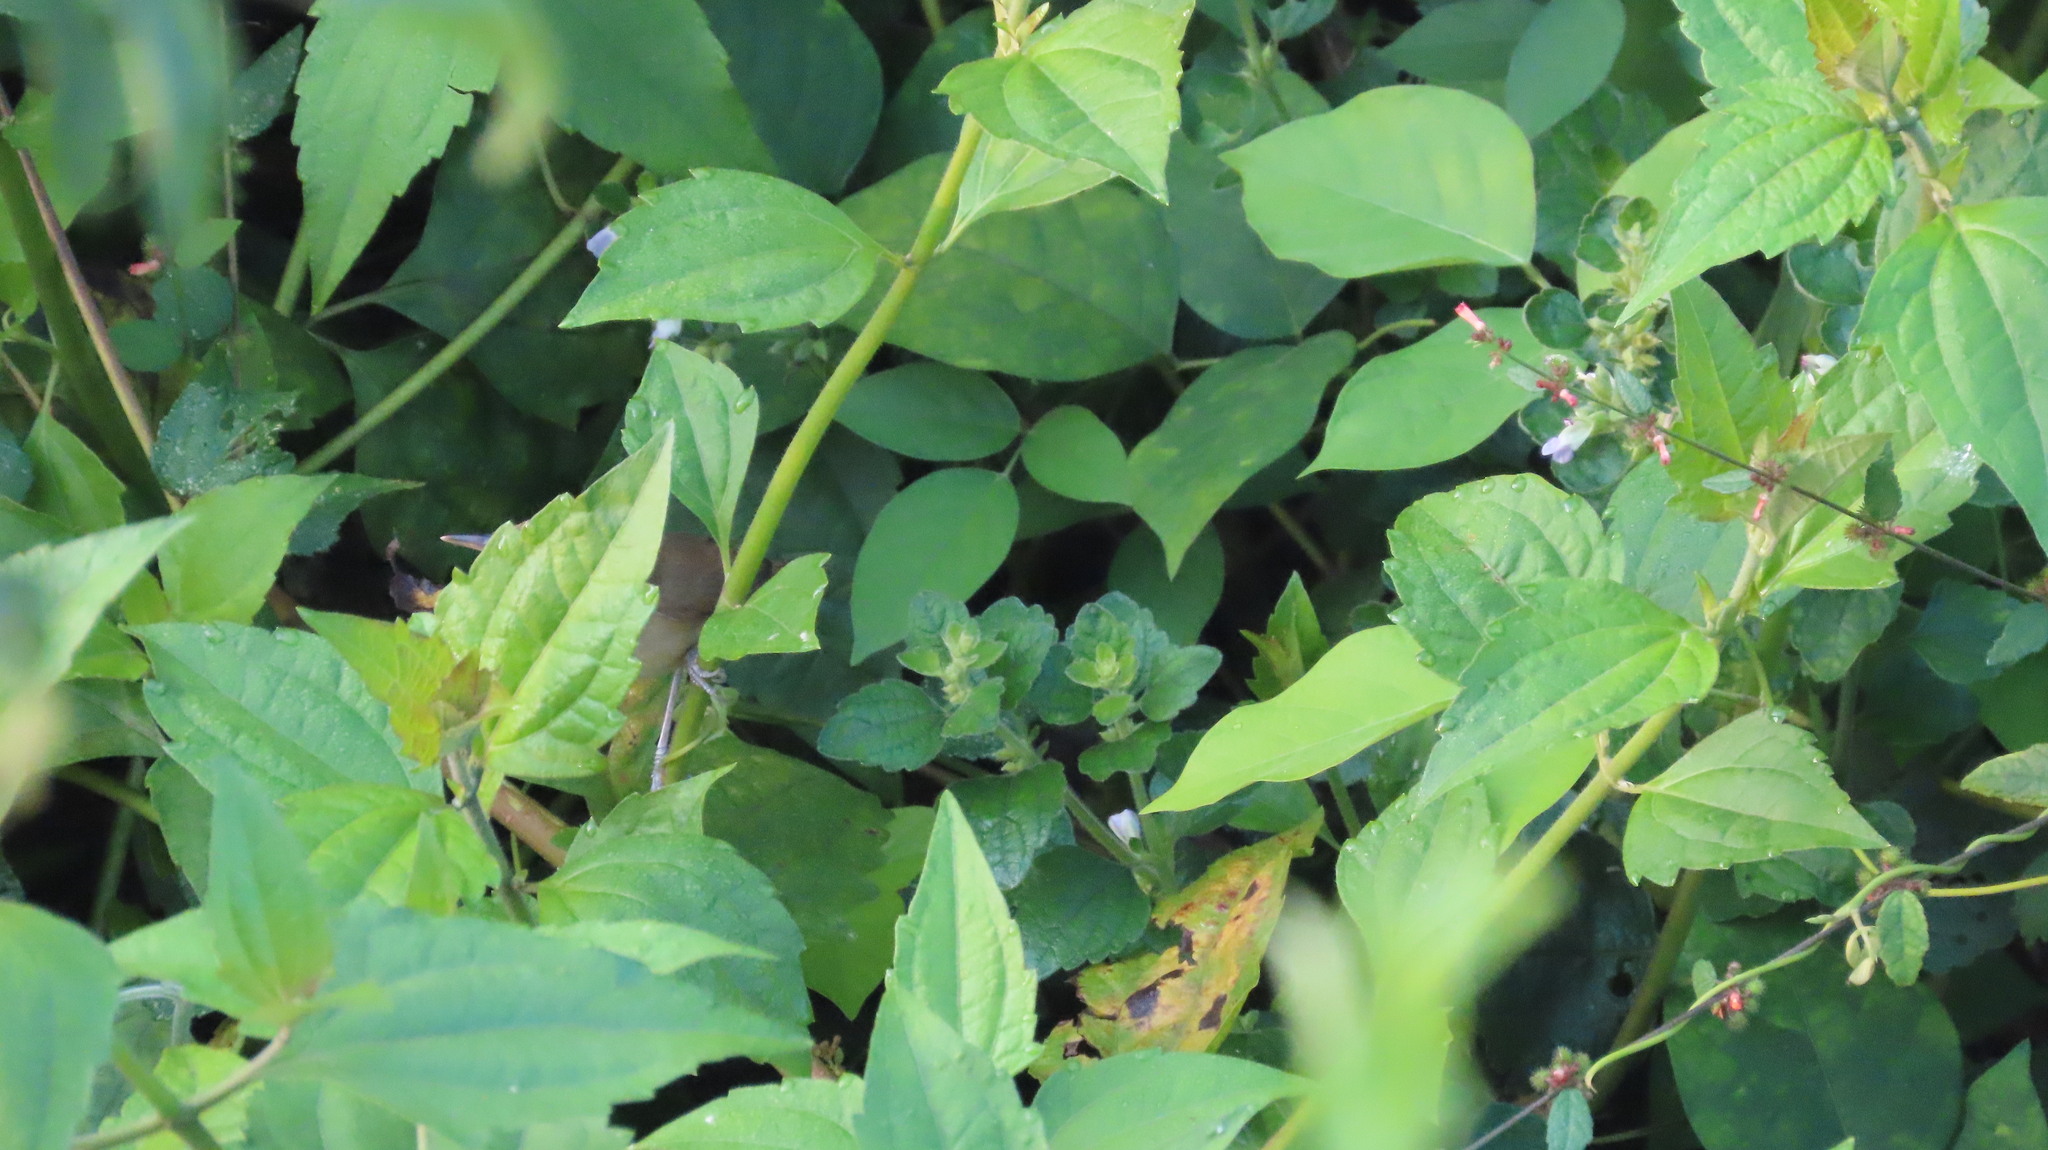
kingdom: Animalia
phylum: Chordata
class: Aves
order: Passeriformes
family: Acrocephalidae
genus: Acrocephalus
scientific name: Acrocephalus dumetorum
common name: Blyth's reed warbler
